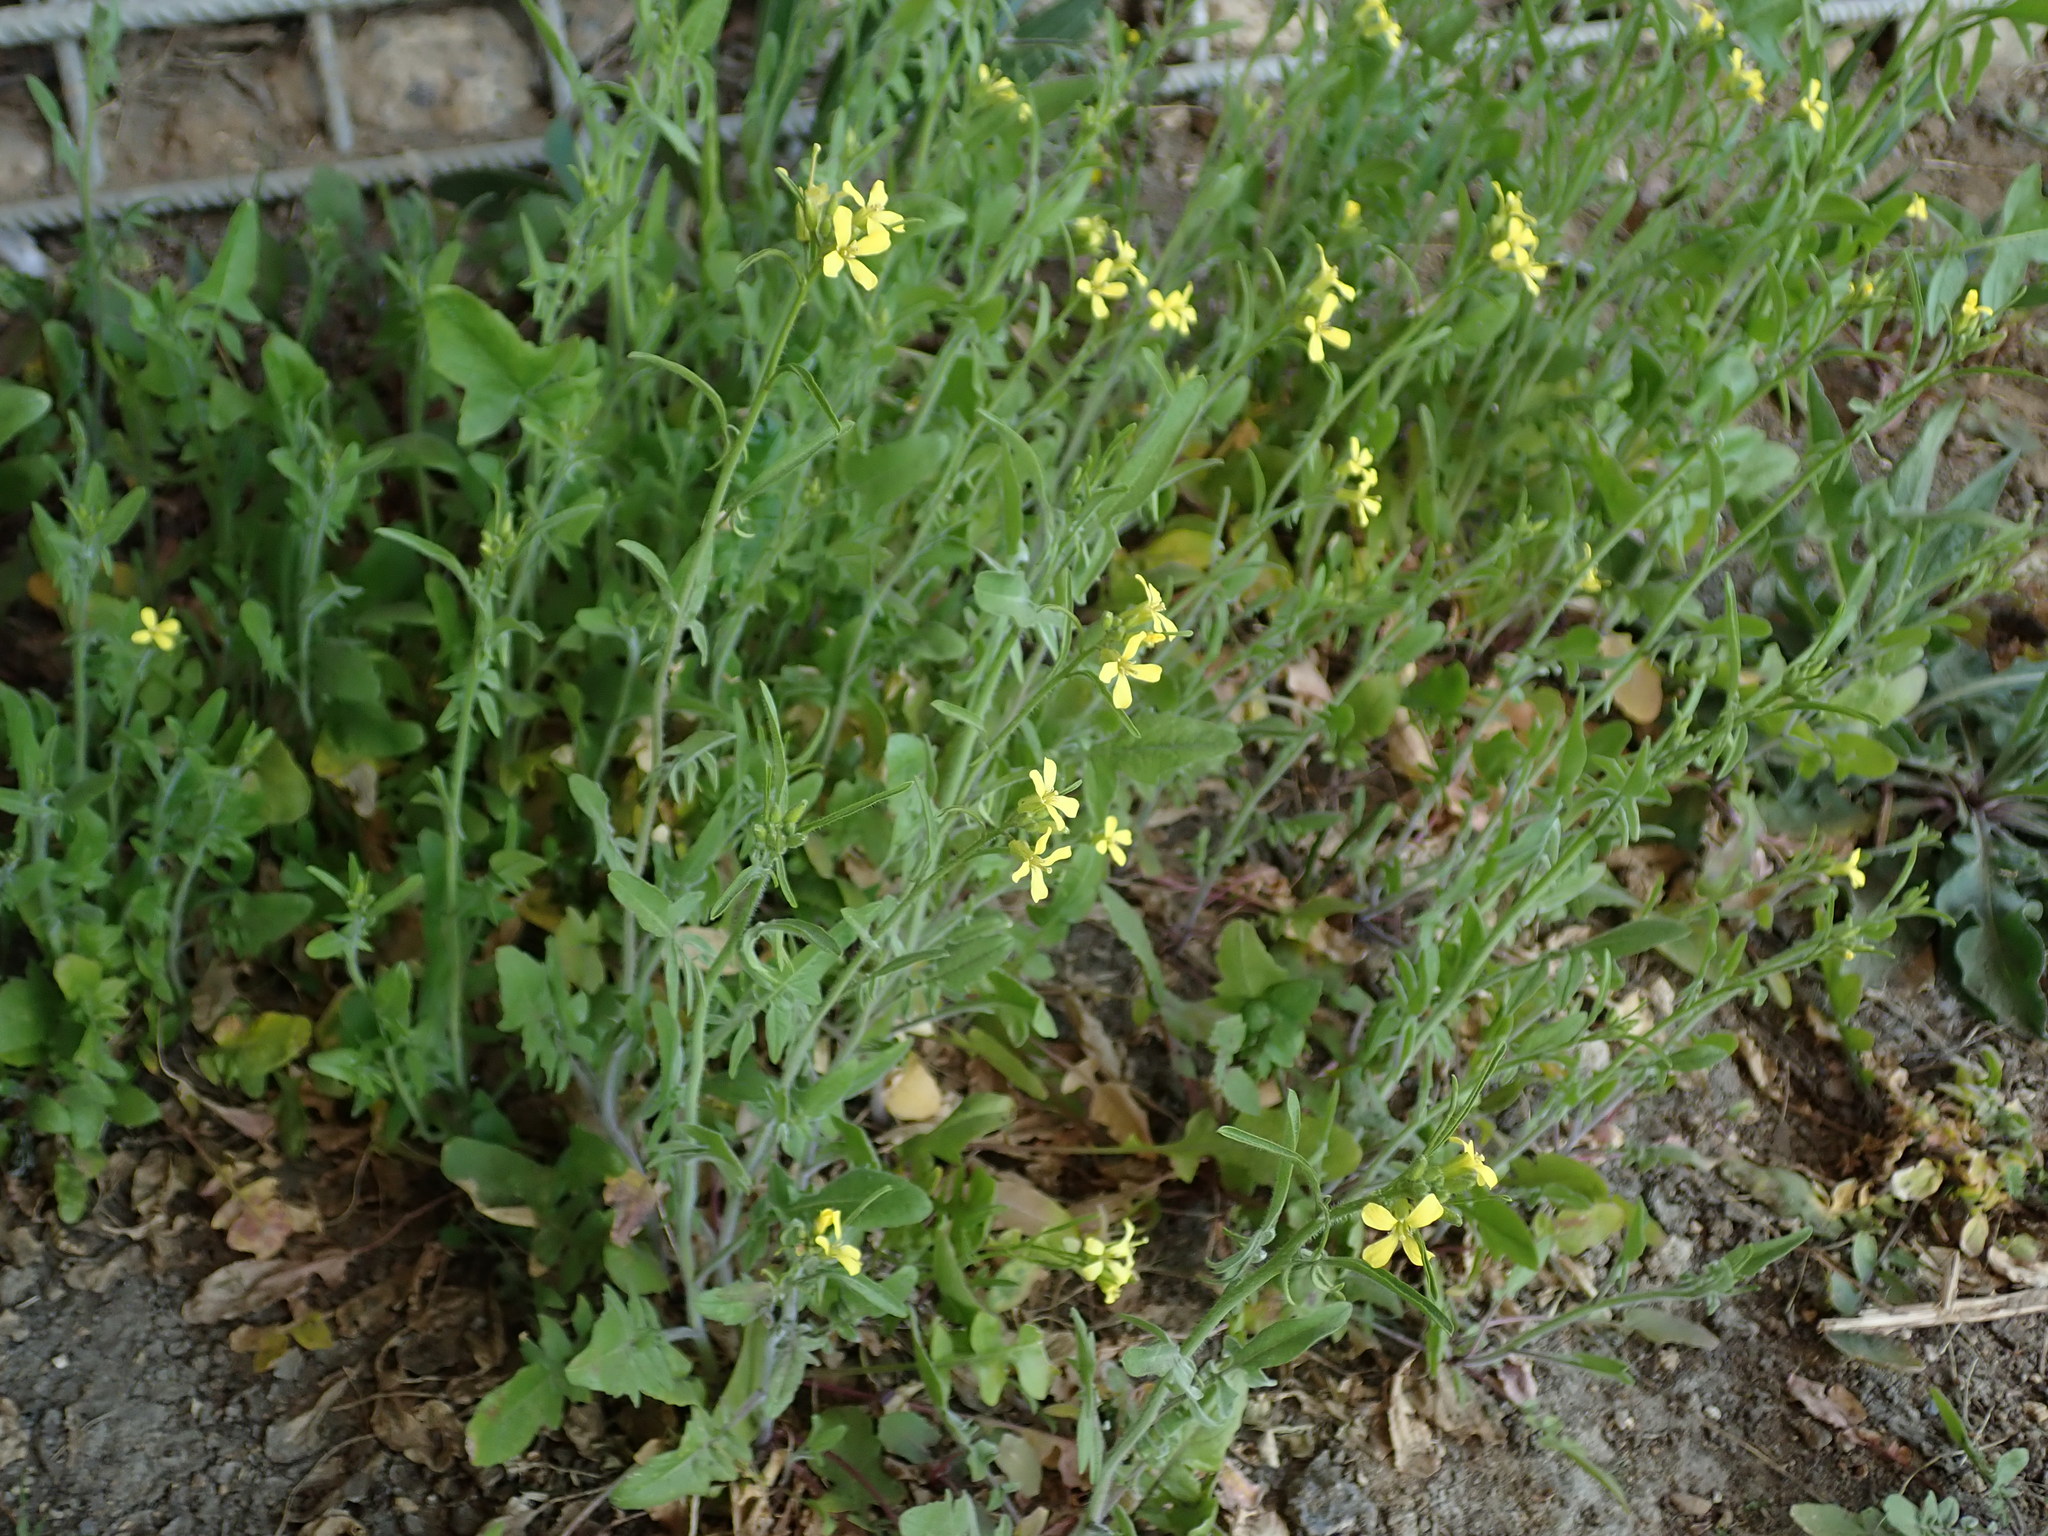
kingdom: Plantae
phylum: Tracheophyta
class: Magnoliopsida
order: Brassicales
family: Brassicaceae
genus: Sisymbrium
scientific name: Sisymbrium orientale
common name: Eastern rocket
